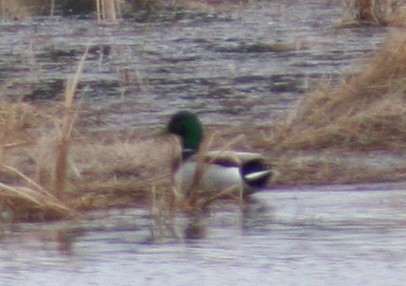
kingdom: Animalia
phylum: Chordata
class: Aves
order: Anseriformes
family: Anatidae
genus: Anas
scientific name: Anas platyrhynchos
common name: Mallard
